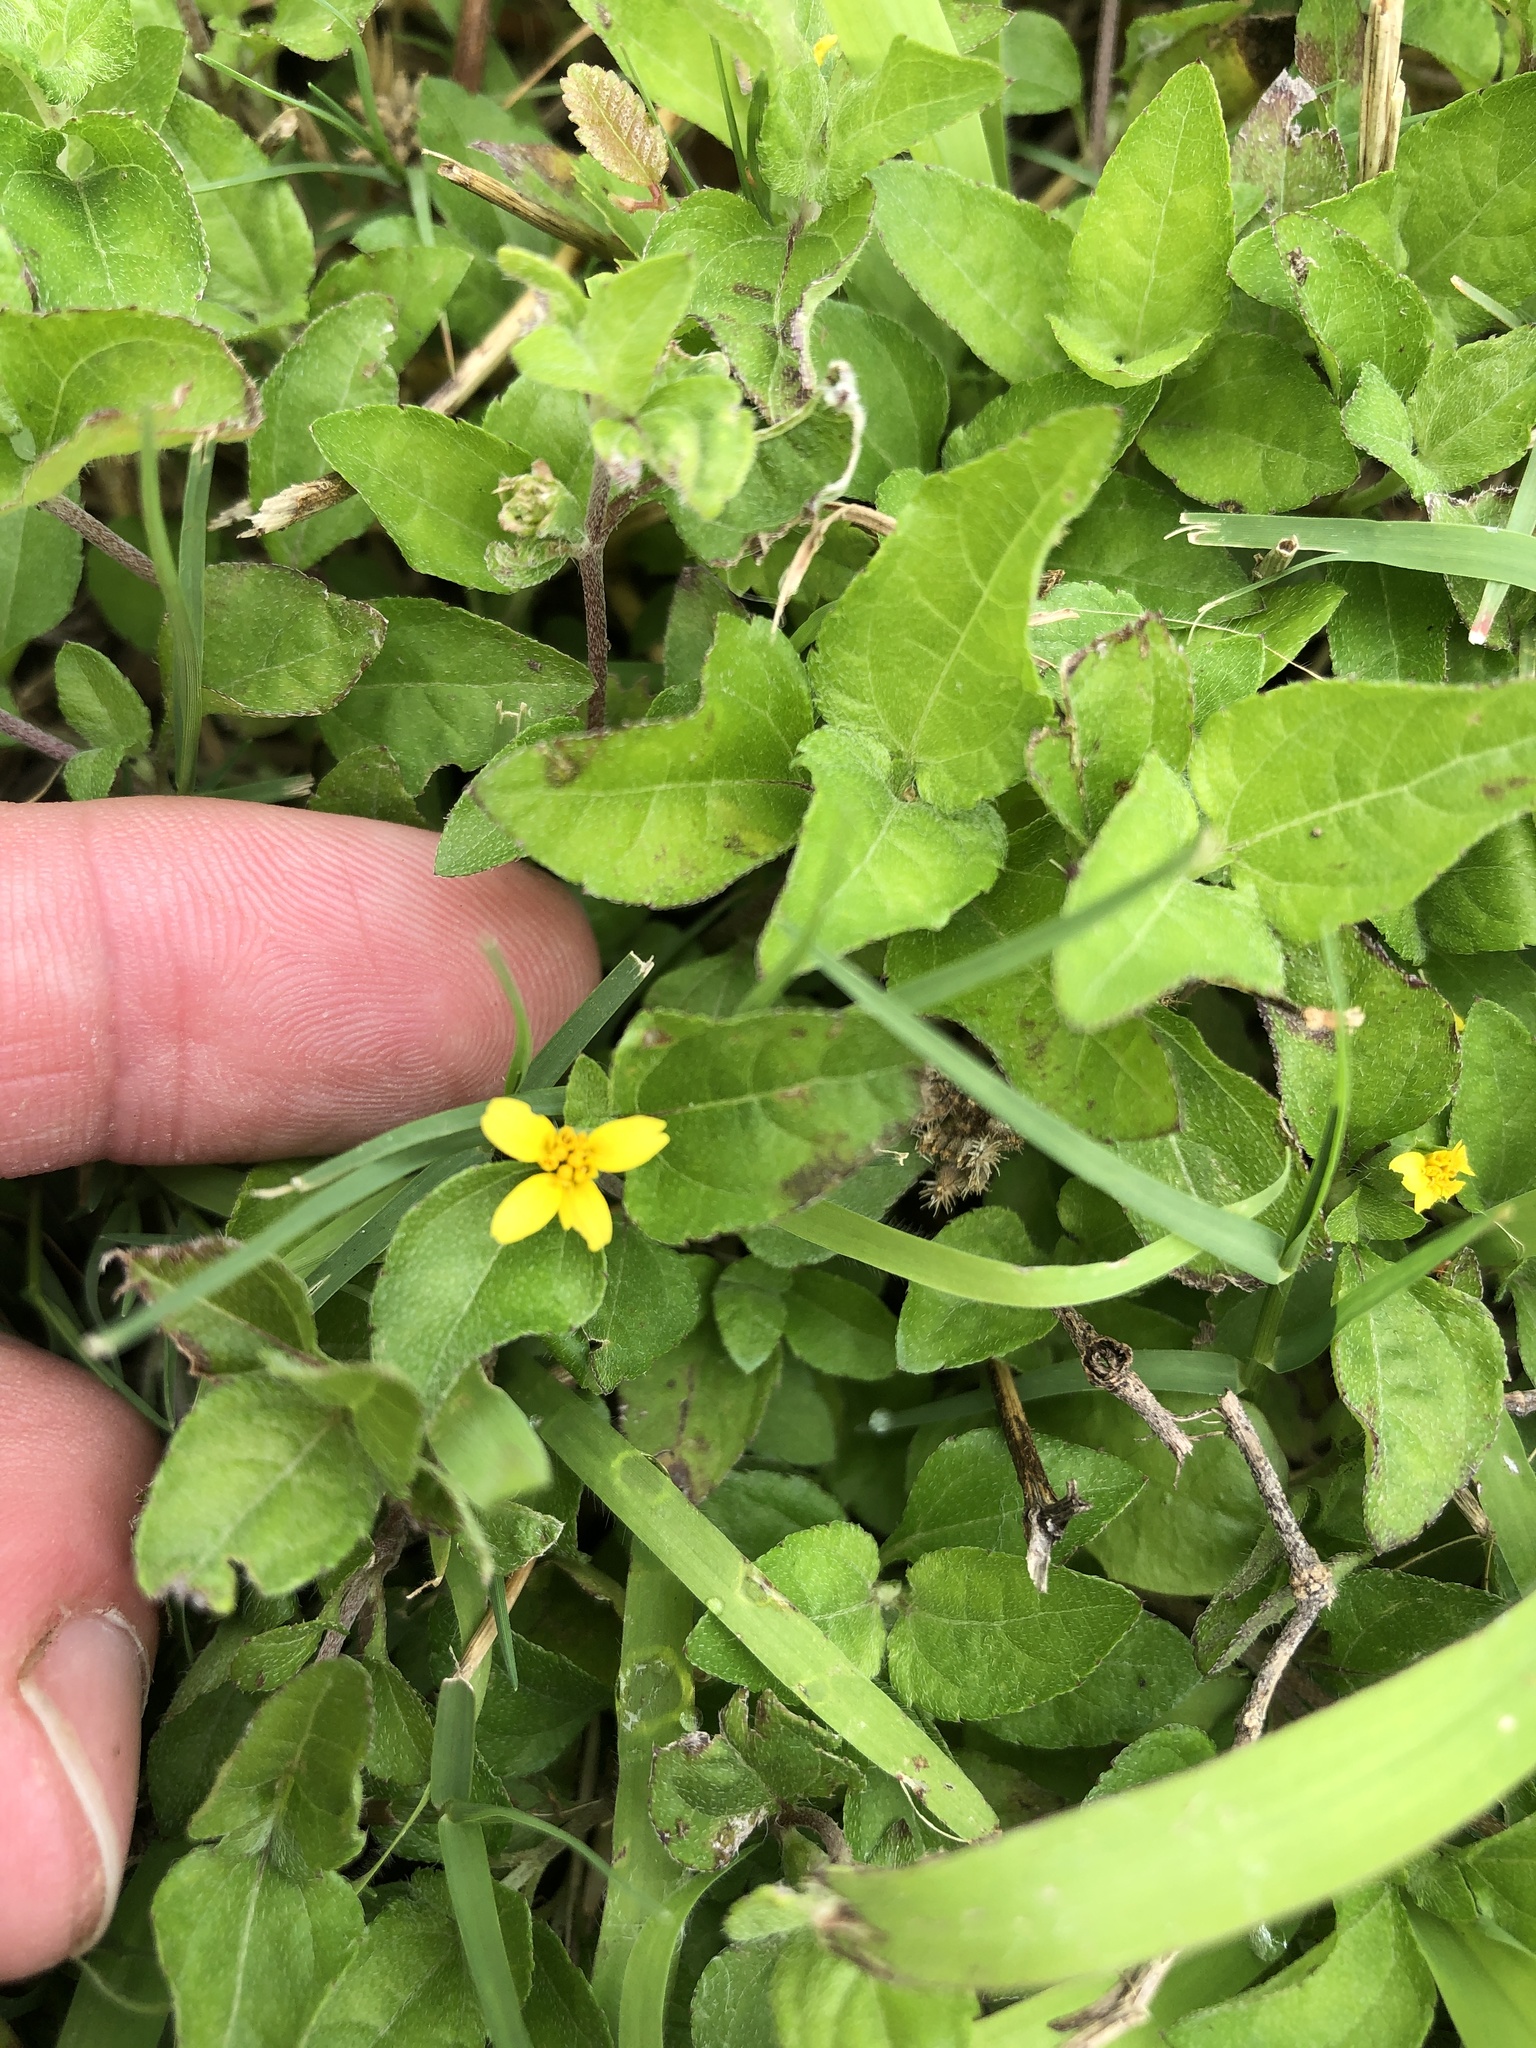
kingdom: Plantae
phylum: Tracheophyta
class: Magnoliopsida
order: Asterales
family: Asteraceae
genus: Calyptocarpus
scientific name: Calyptocarpus vialis
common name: Straggler daisy
